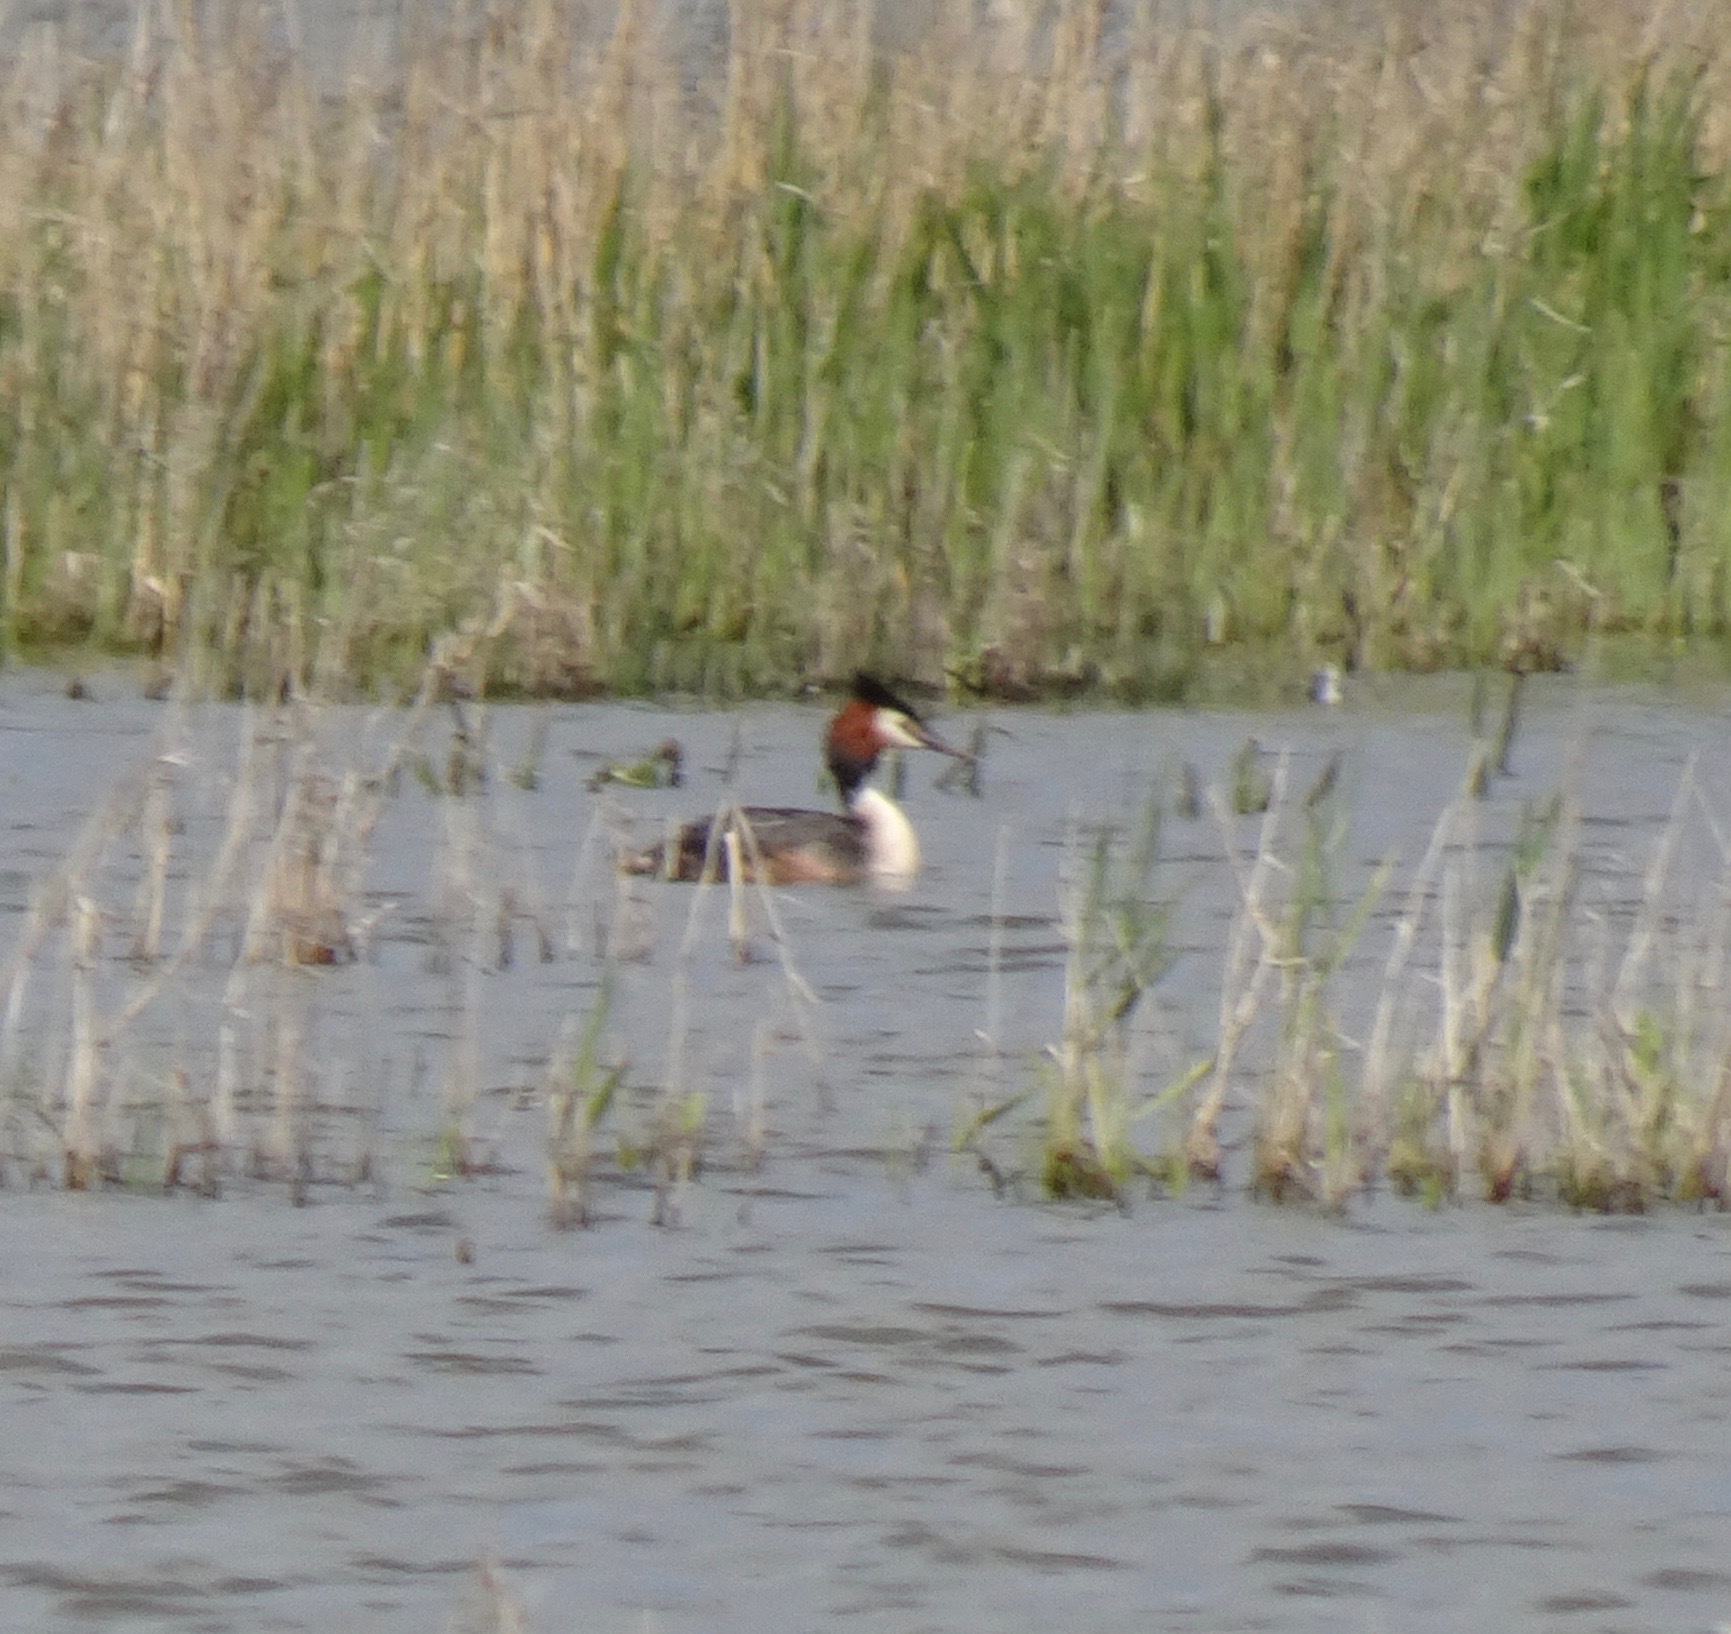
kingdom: Animalia
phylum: Chordata
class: Aves
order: Podicipediformes
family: Podicipedidae
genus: Podiceps
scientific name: Podiceps cristatus
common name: Great crested grebe
